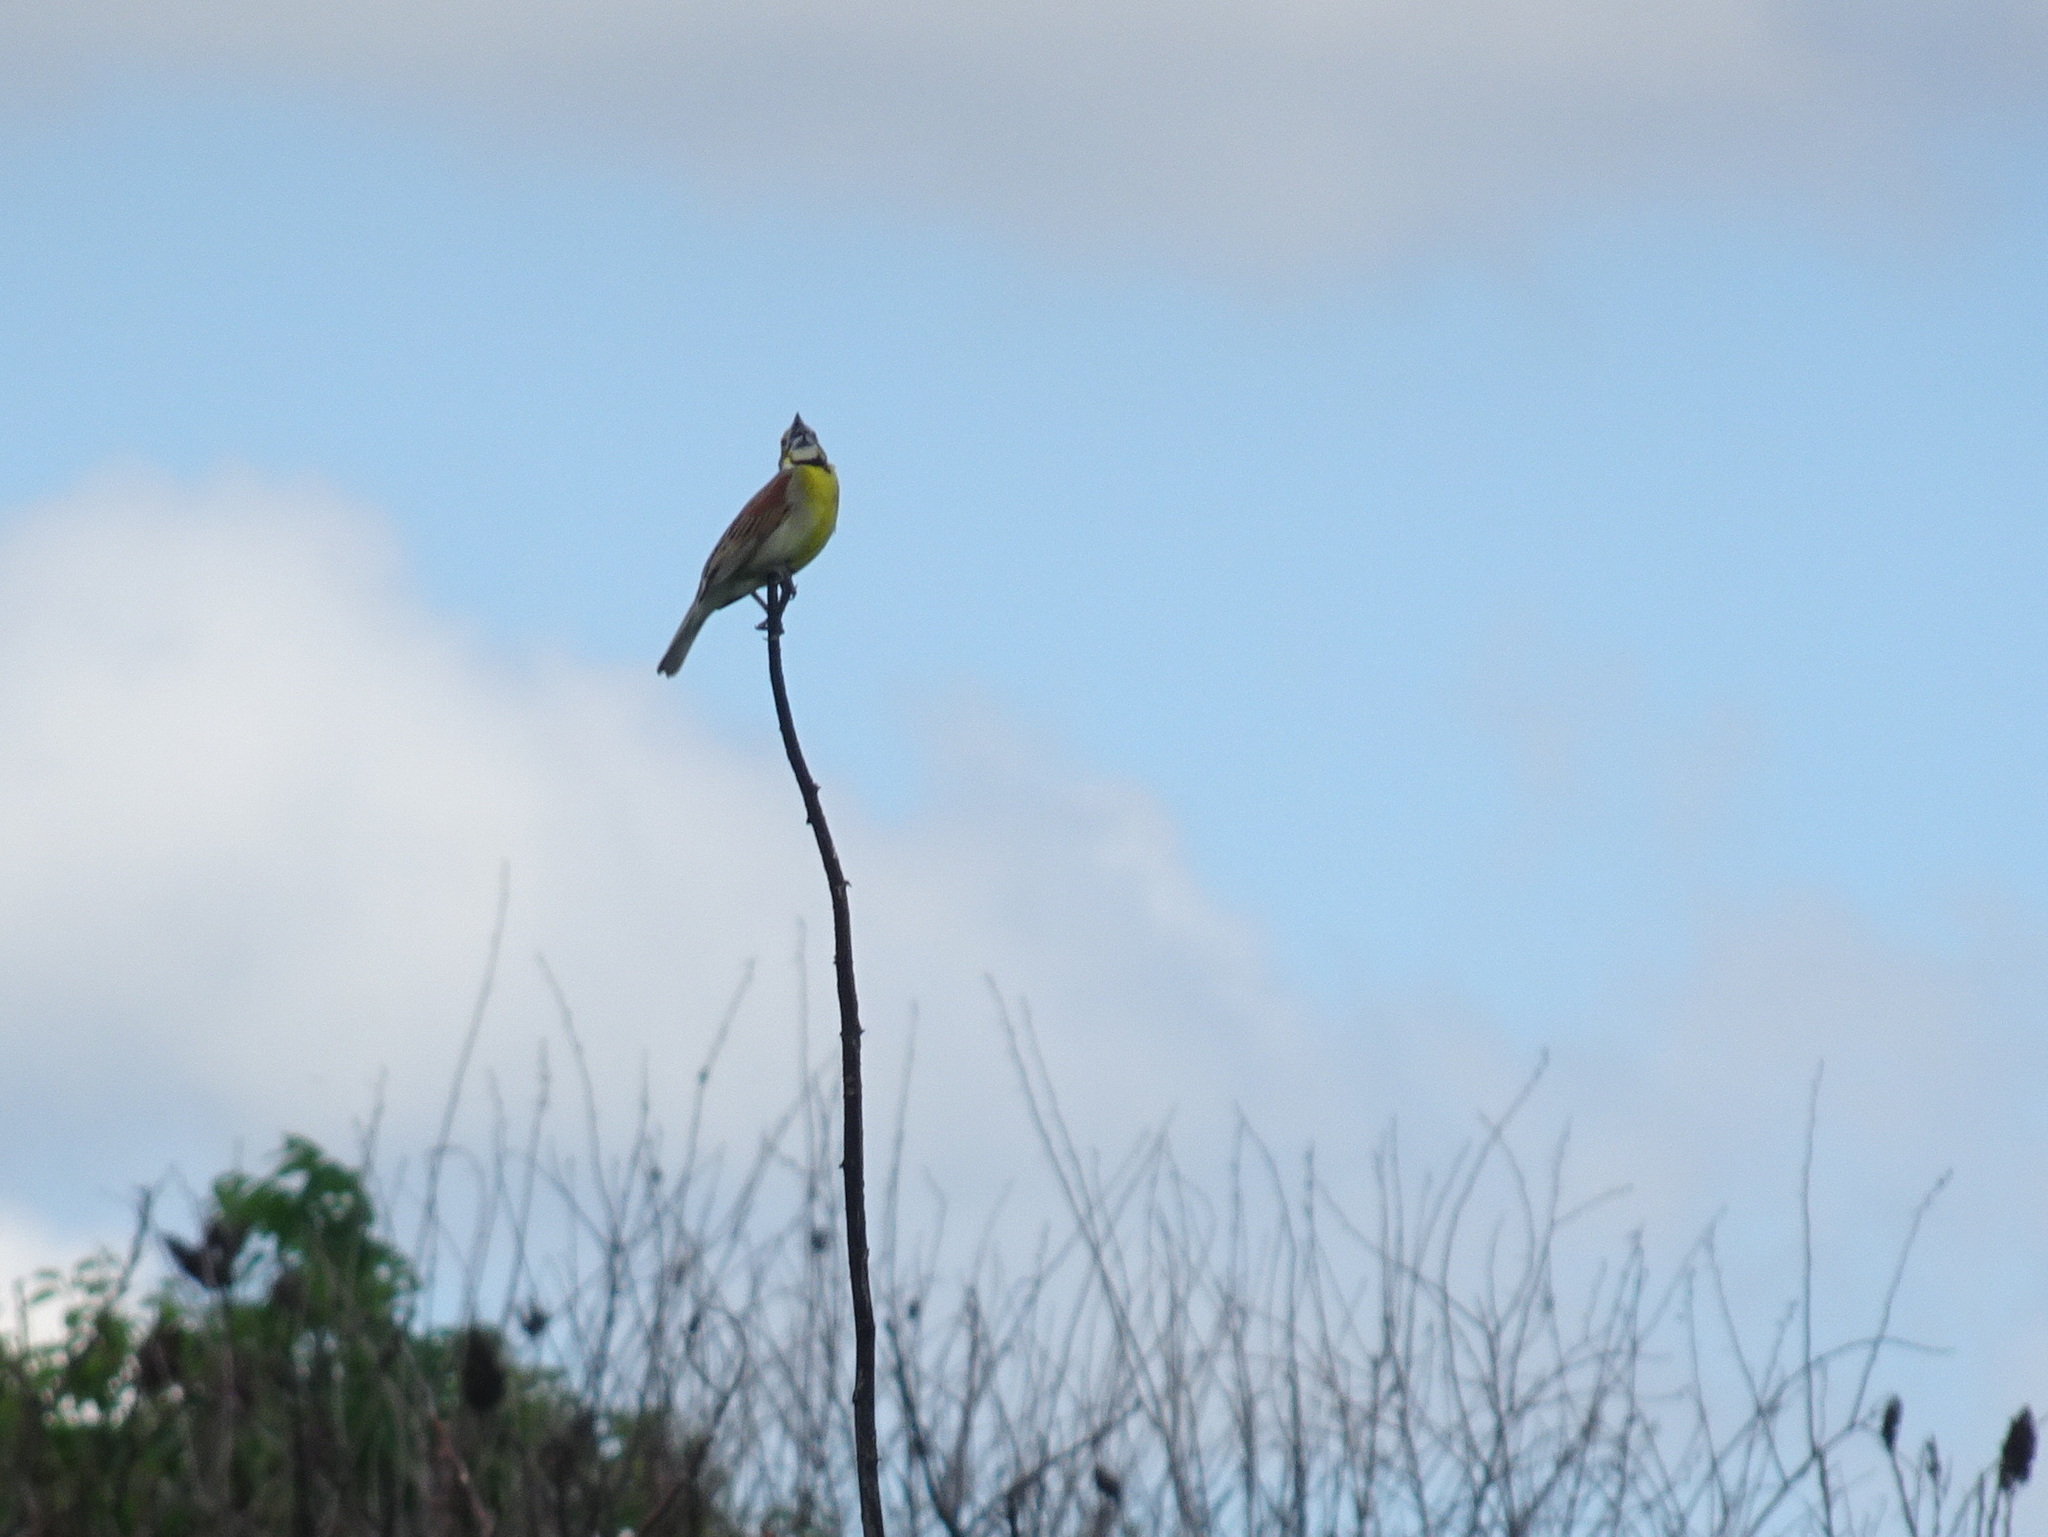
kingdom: Animalia
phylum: Chordata
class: Aves
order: Passeriformes
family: Cardinalidae
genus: Spiza
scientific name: Spiza americana
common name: Dickcissel
